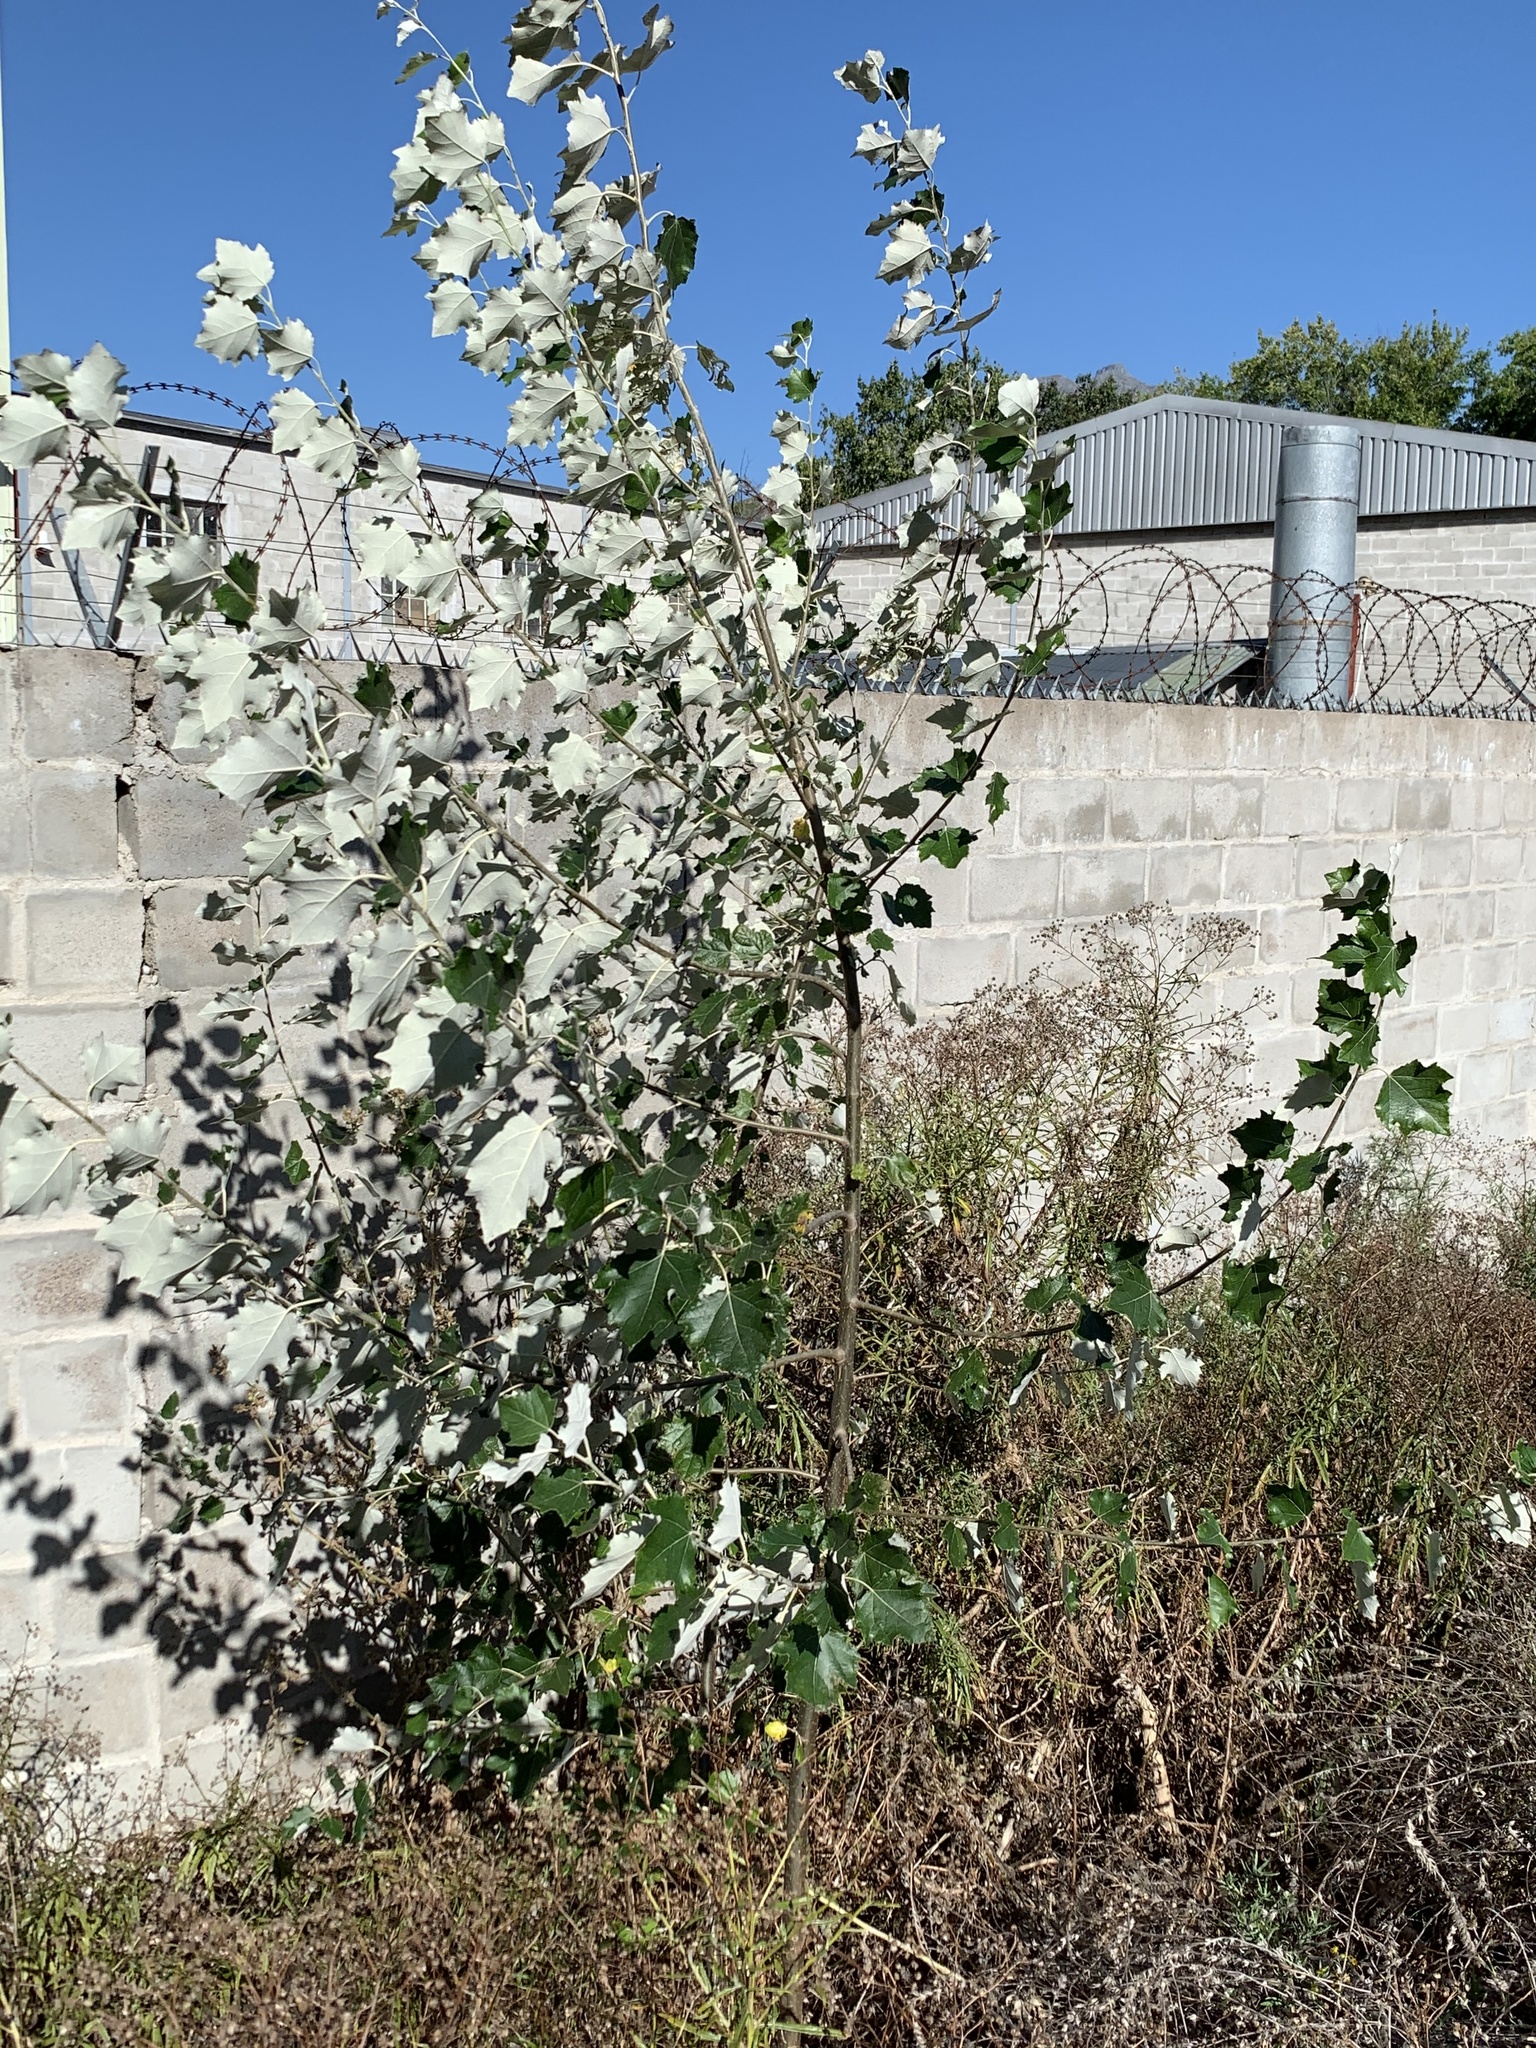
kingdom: Plantae
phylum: Tracheophyta
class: Magnoliopsida
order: Malpighiales
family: Salicaceae
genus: Populus
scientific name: Populus canescens
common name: Gray poplar
